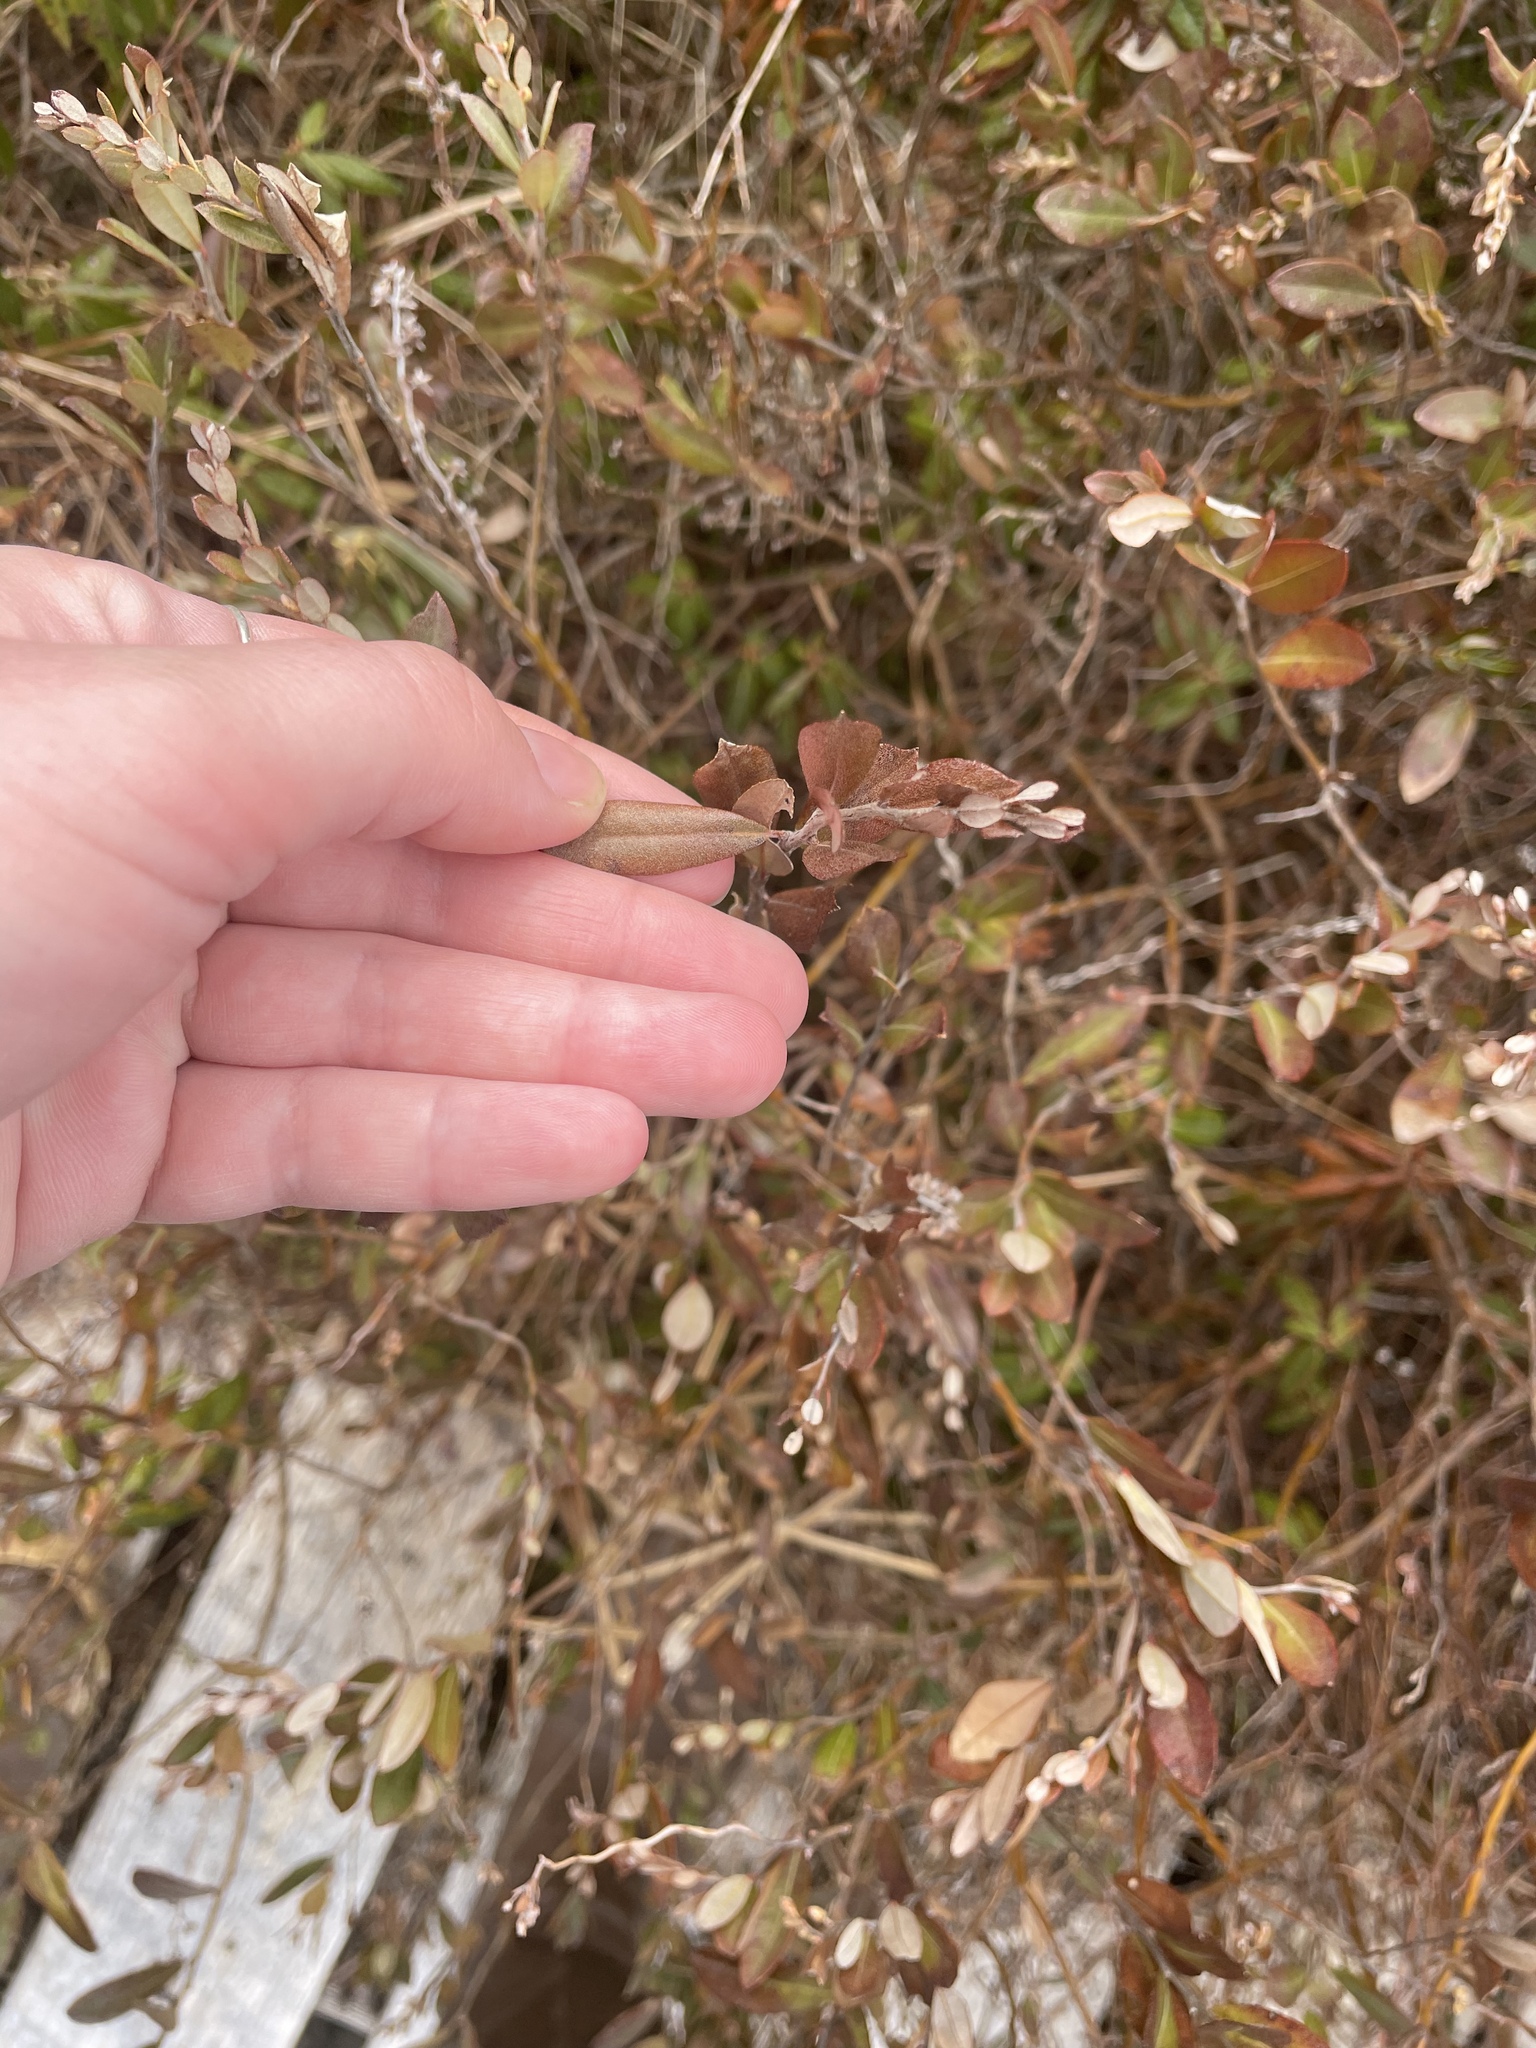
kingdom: Plantae
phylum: Tracheophyta
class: Magnoliopsida
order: Ericales
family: Ericaceae
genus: Chamaedaphne
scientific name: Chamaedaphne calyculata
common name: Leatherleaf
